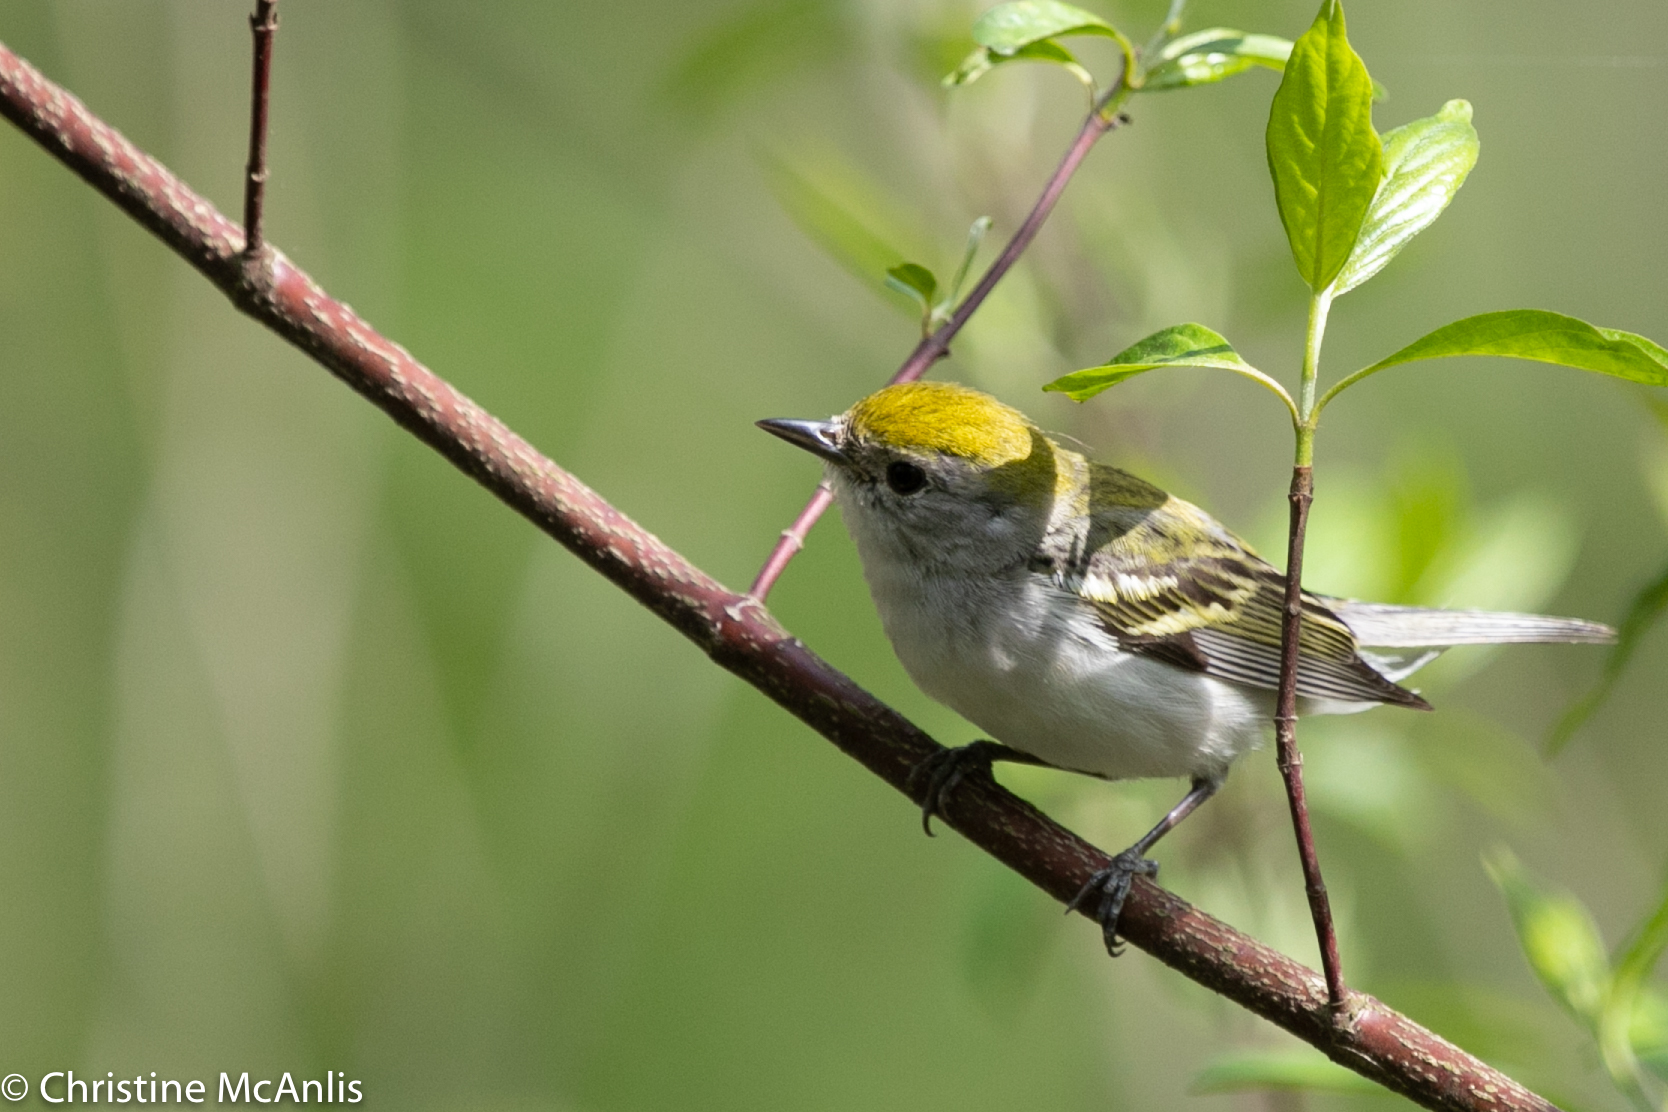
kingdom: Animalia
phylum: Chordata
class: Aves
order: Passeriformes
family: Parulidae
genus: Setophaga
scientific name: Setophaga pensylvanica
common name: Chestnut-sided warbler
